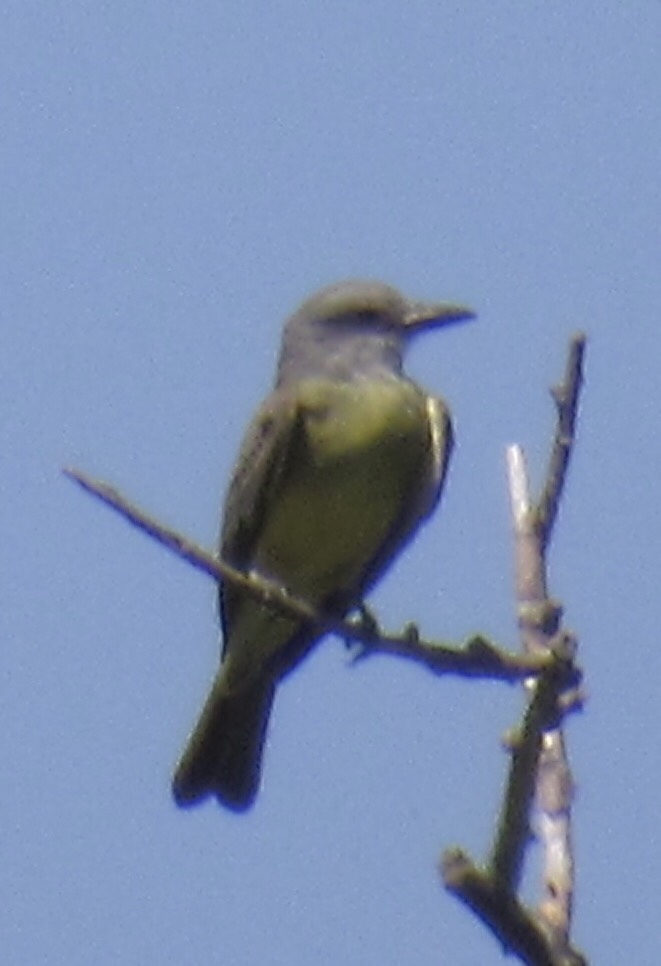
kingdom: Animalia
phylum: Chordata
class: Aves
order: Passeriformes
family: Tyrannidae
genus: Tyrannus
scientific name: Tyrannus melancholicus
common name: Tropical kingbird
